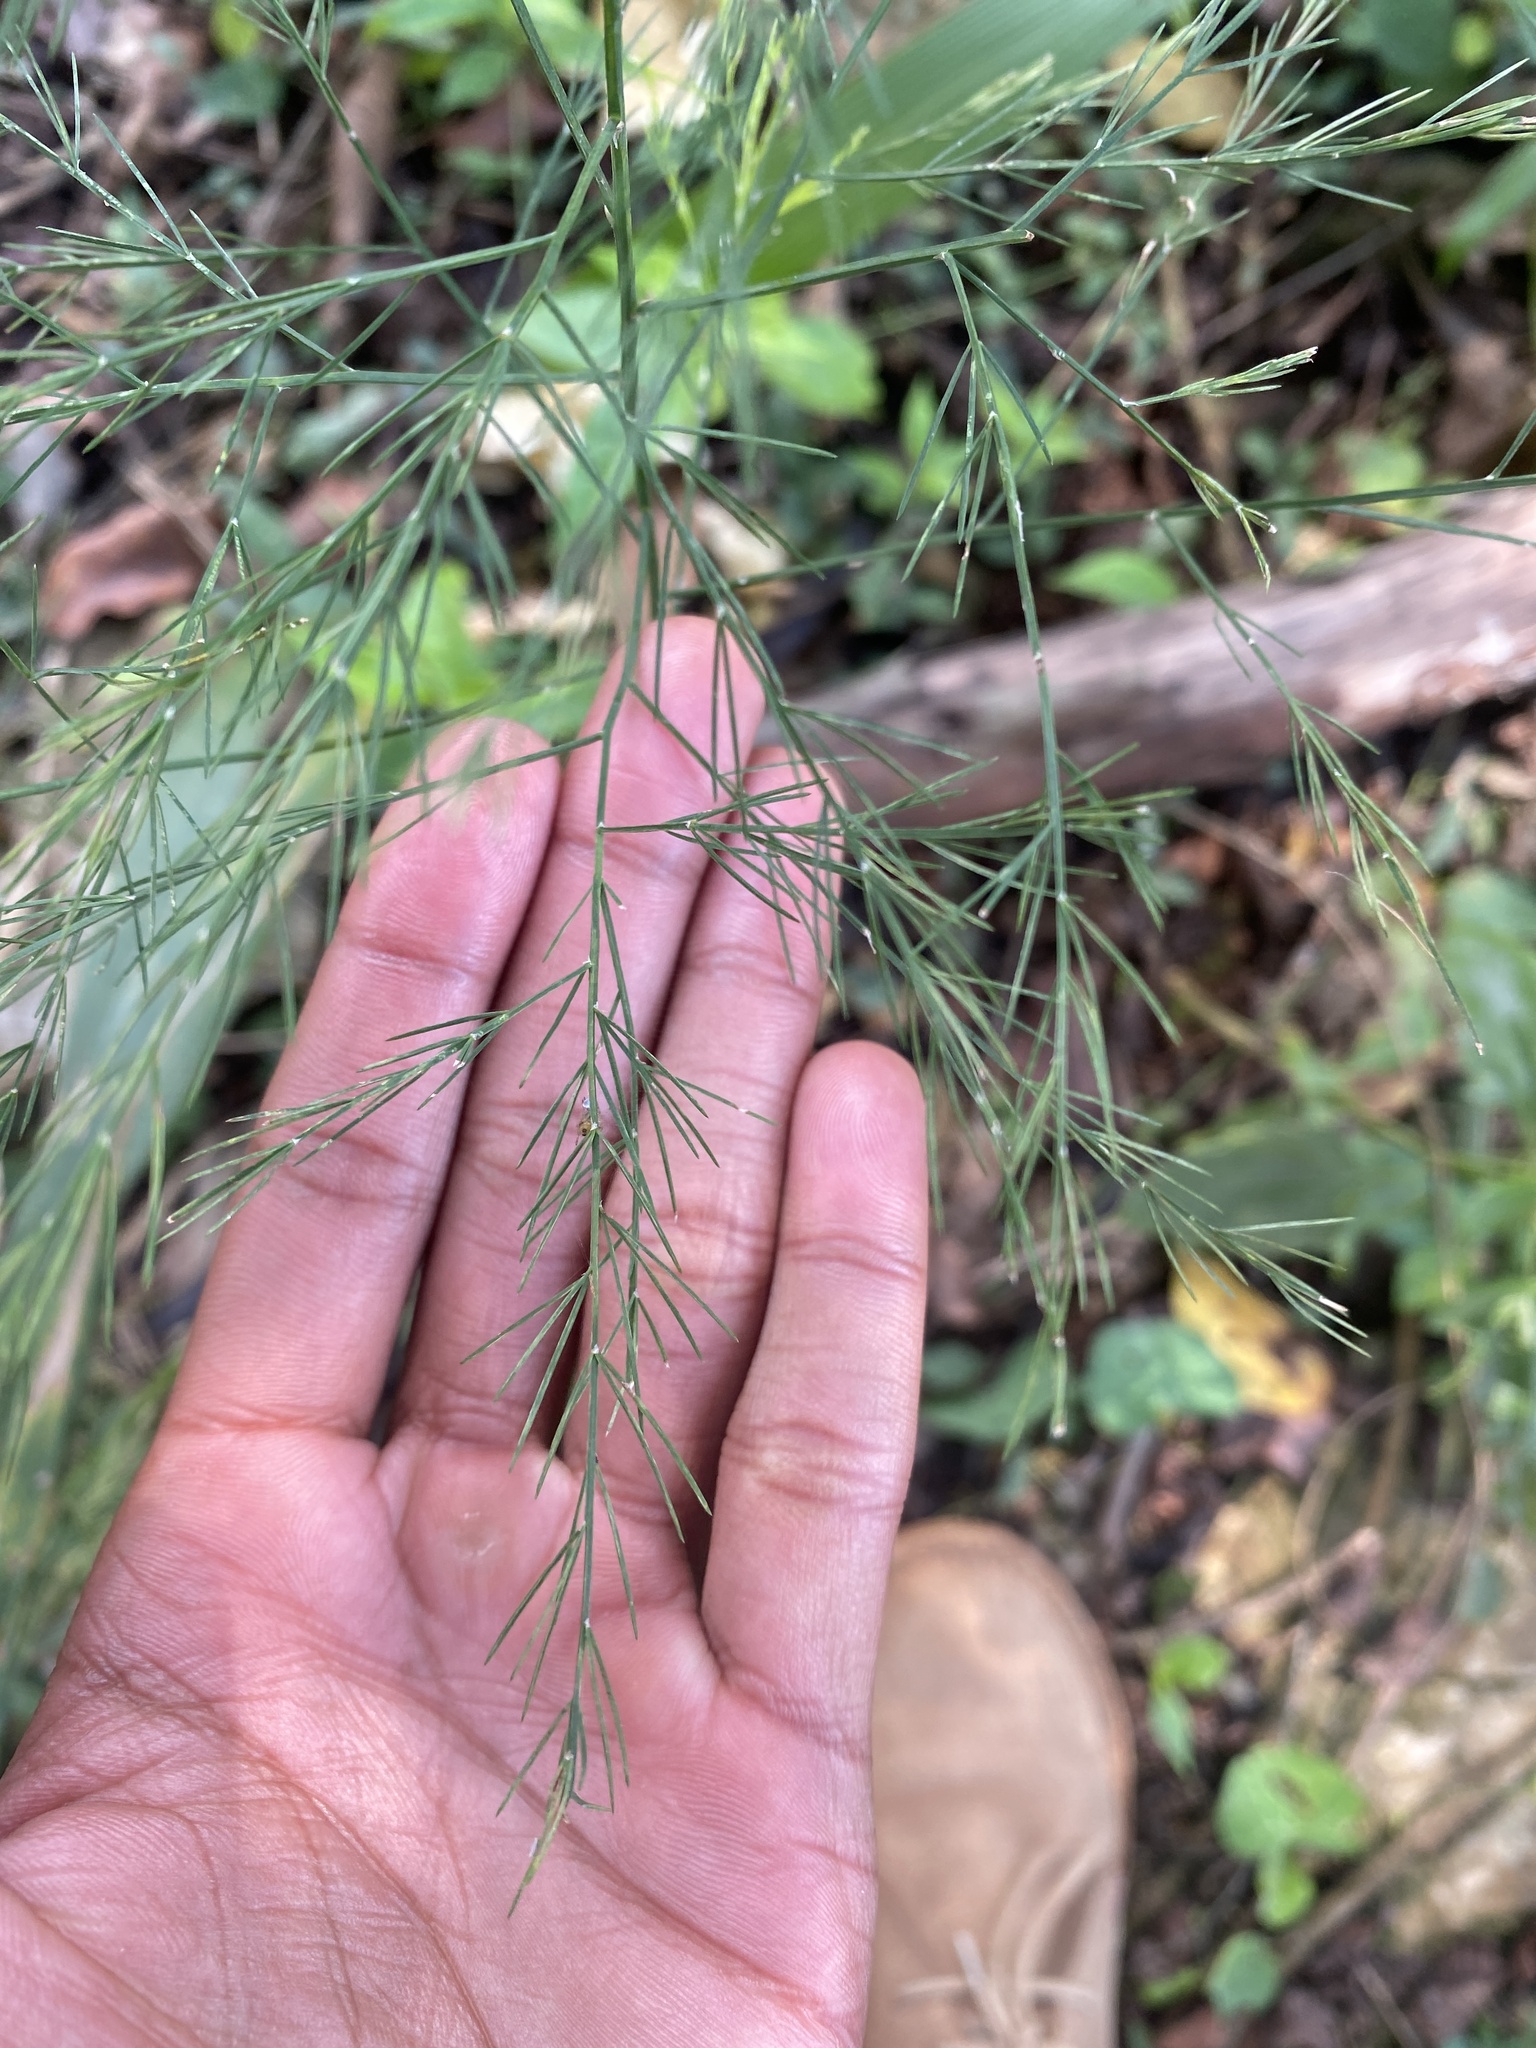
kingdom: Plantae
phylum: Tracheophyta
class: Liliopsida
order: Asparagales
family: Asparagaceae
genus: Asparagus
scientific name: Asparagus virgatus
